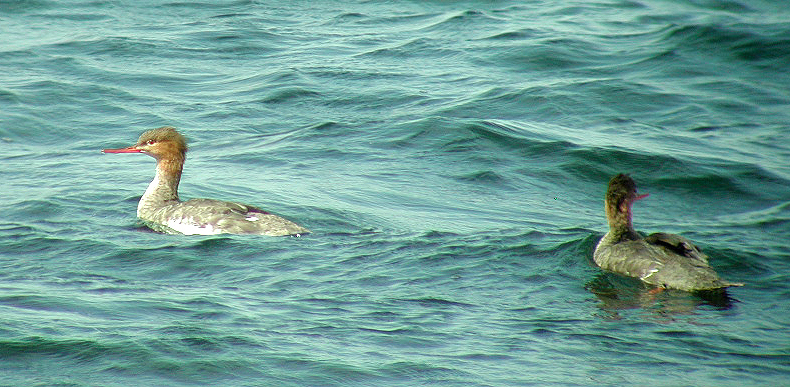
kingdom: Animalia
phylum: Chordata
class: Aves
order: Anseriformes
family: Anatidae
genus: Mergus
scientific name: Mergus serrator
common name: Red-breasted merganser
